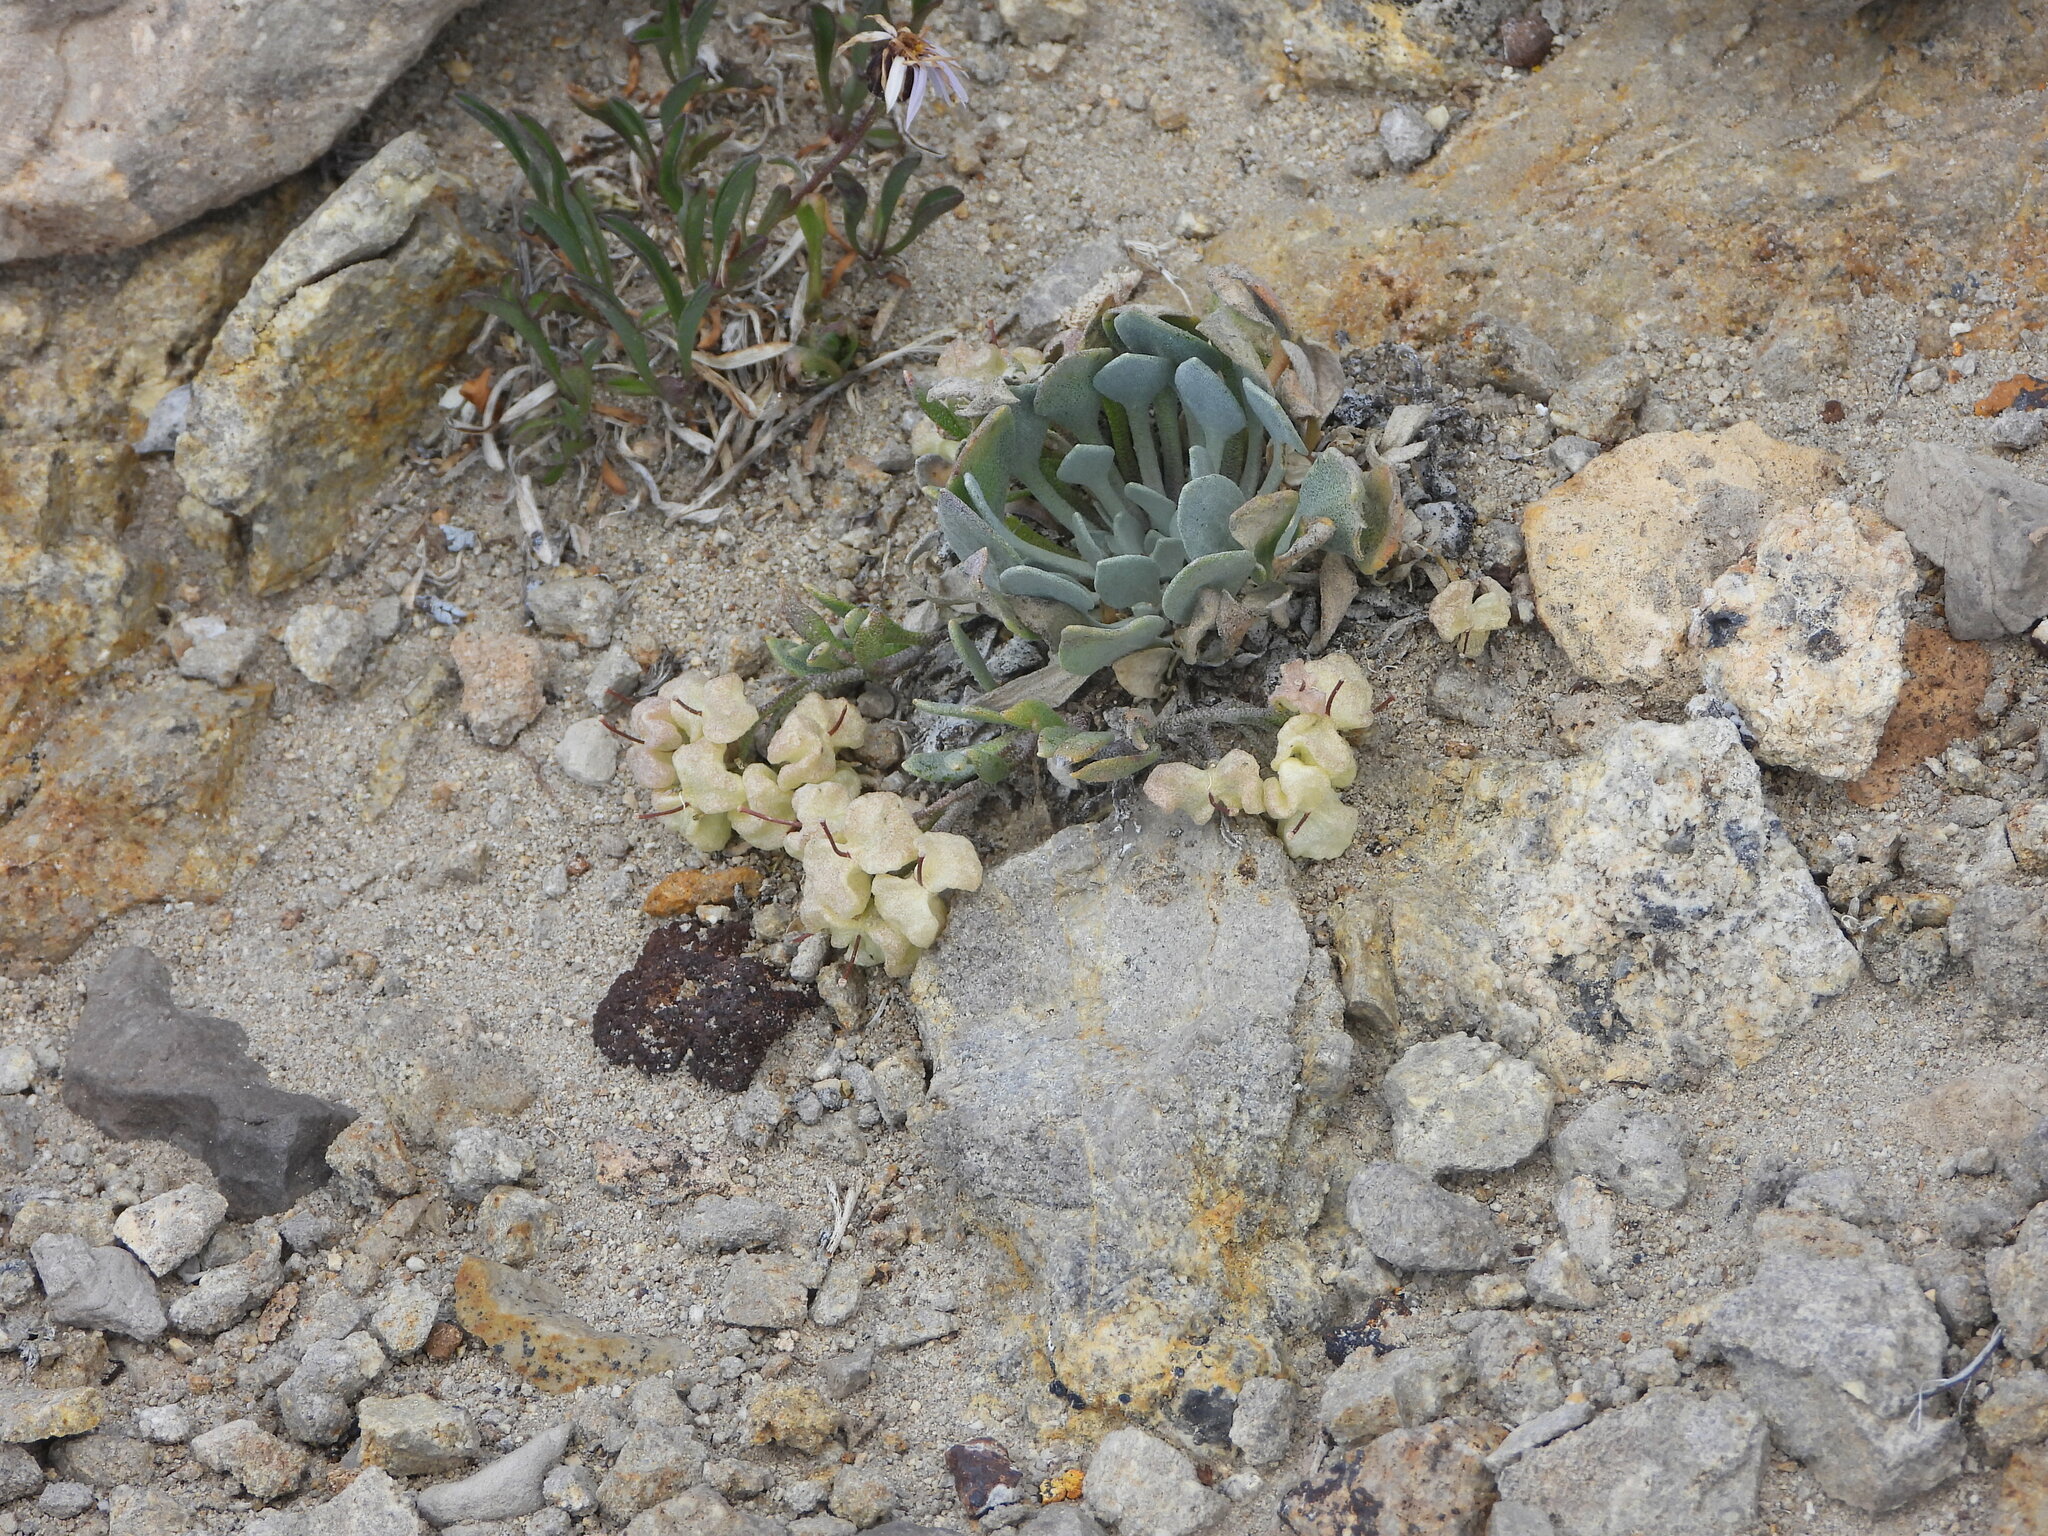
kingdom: Plantae
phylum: Tracheophyta
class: Magnoliopsida
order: Brassicales
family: Brassicaceae
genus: Physaria
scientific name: Physaria alpina
